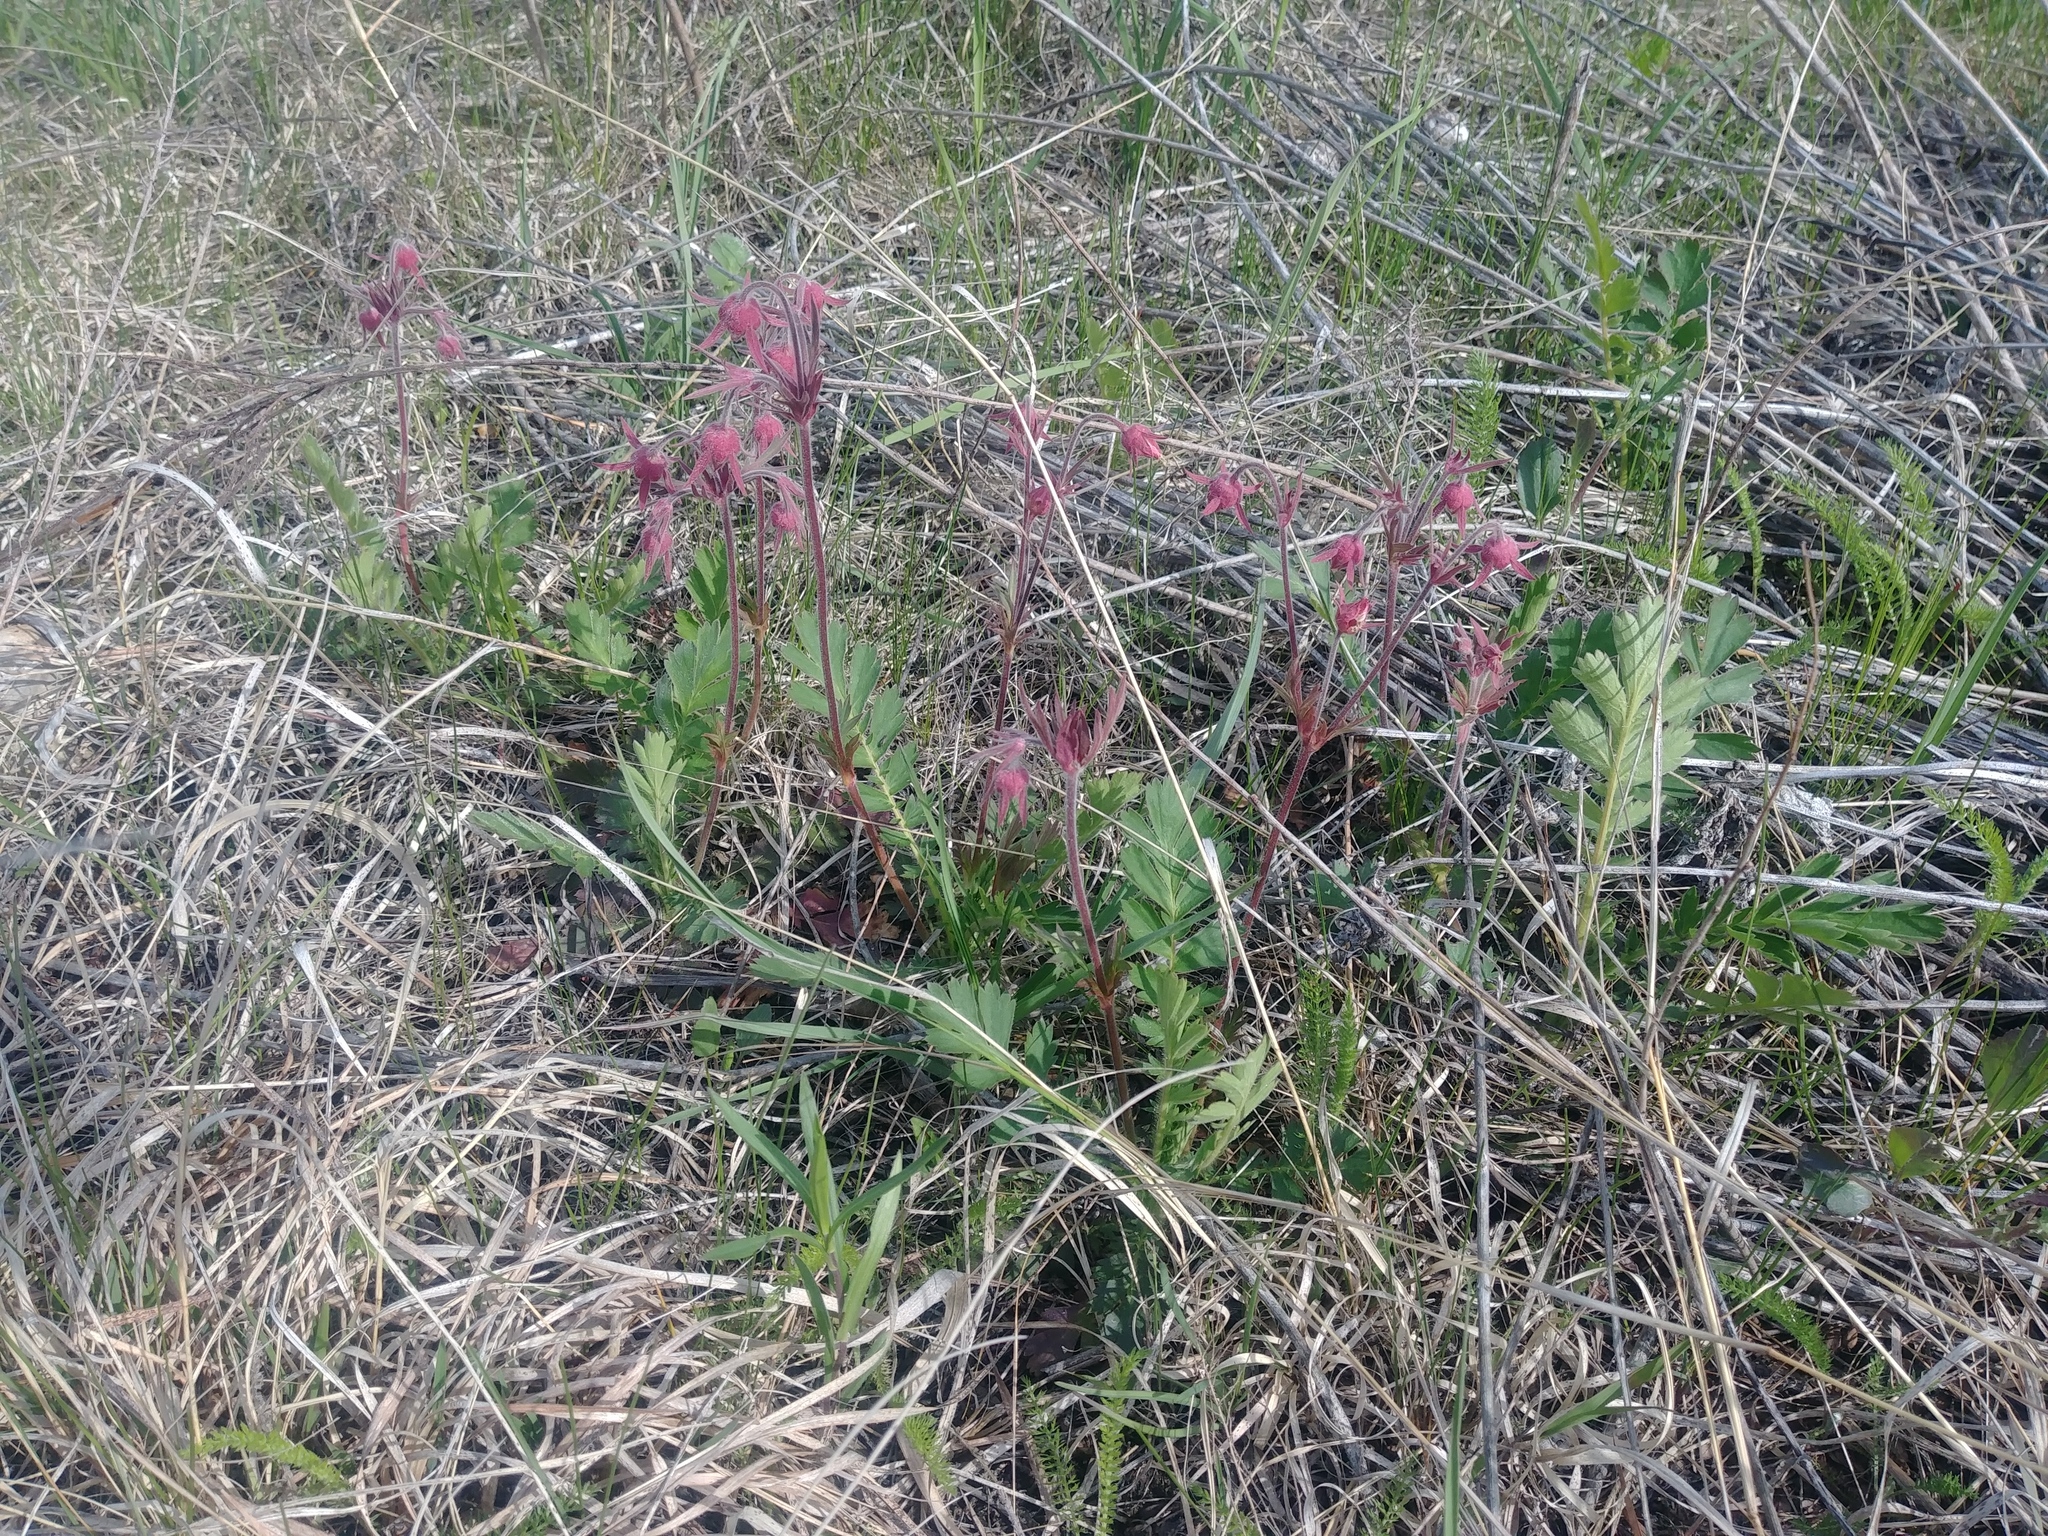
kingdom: Plantae
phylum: Tracheophyta
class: Magnoliopsida
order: Rosales
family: Rosaceae
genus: Geum
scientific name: Geum triflorum
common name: Old man's whiskers
